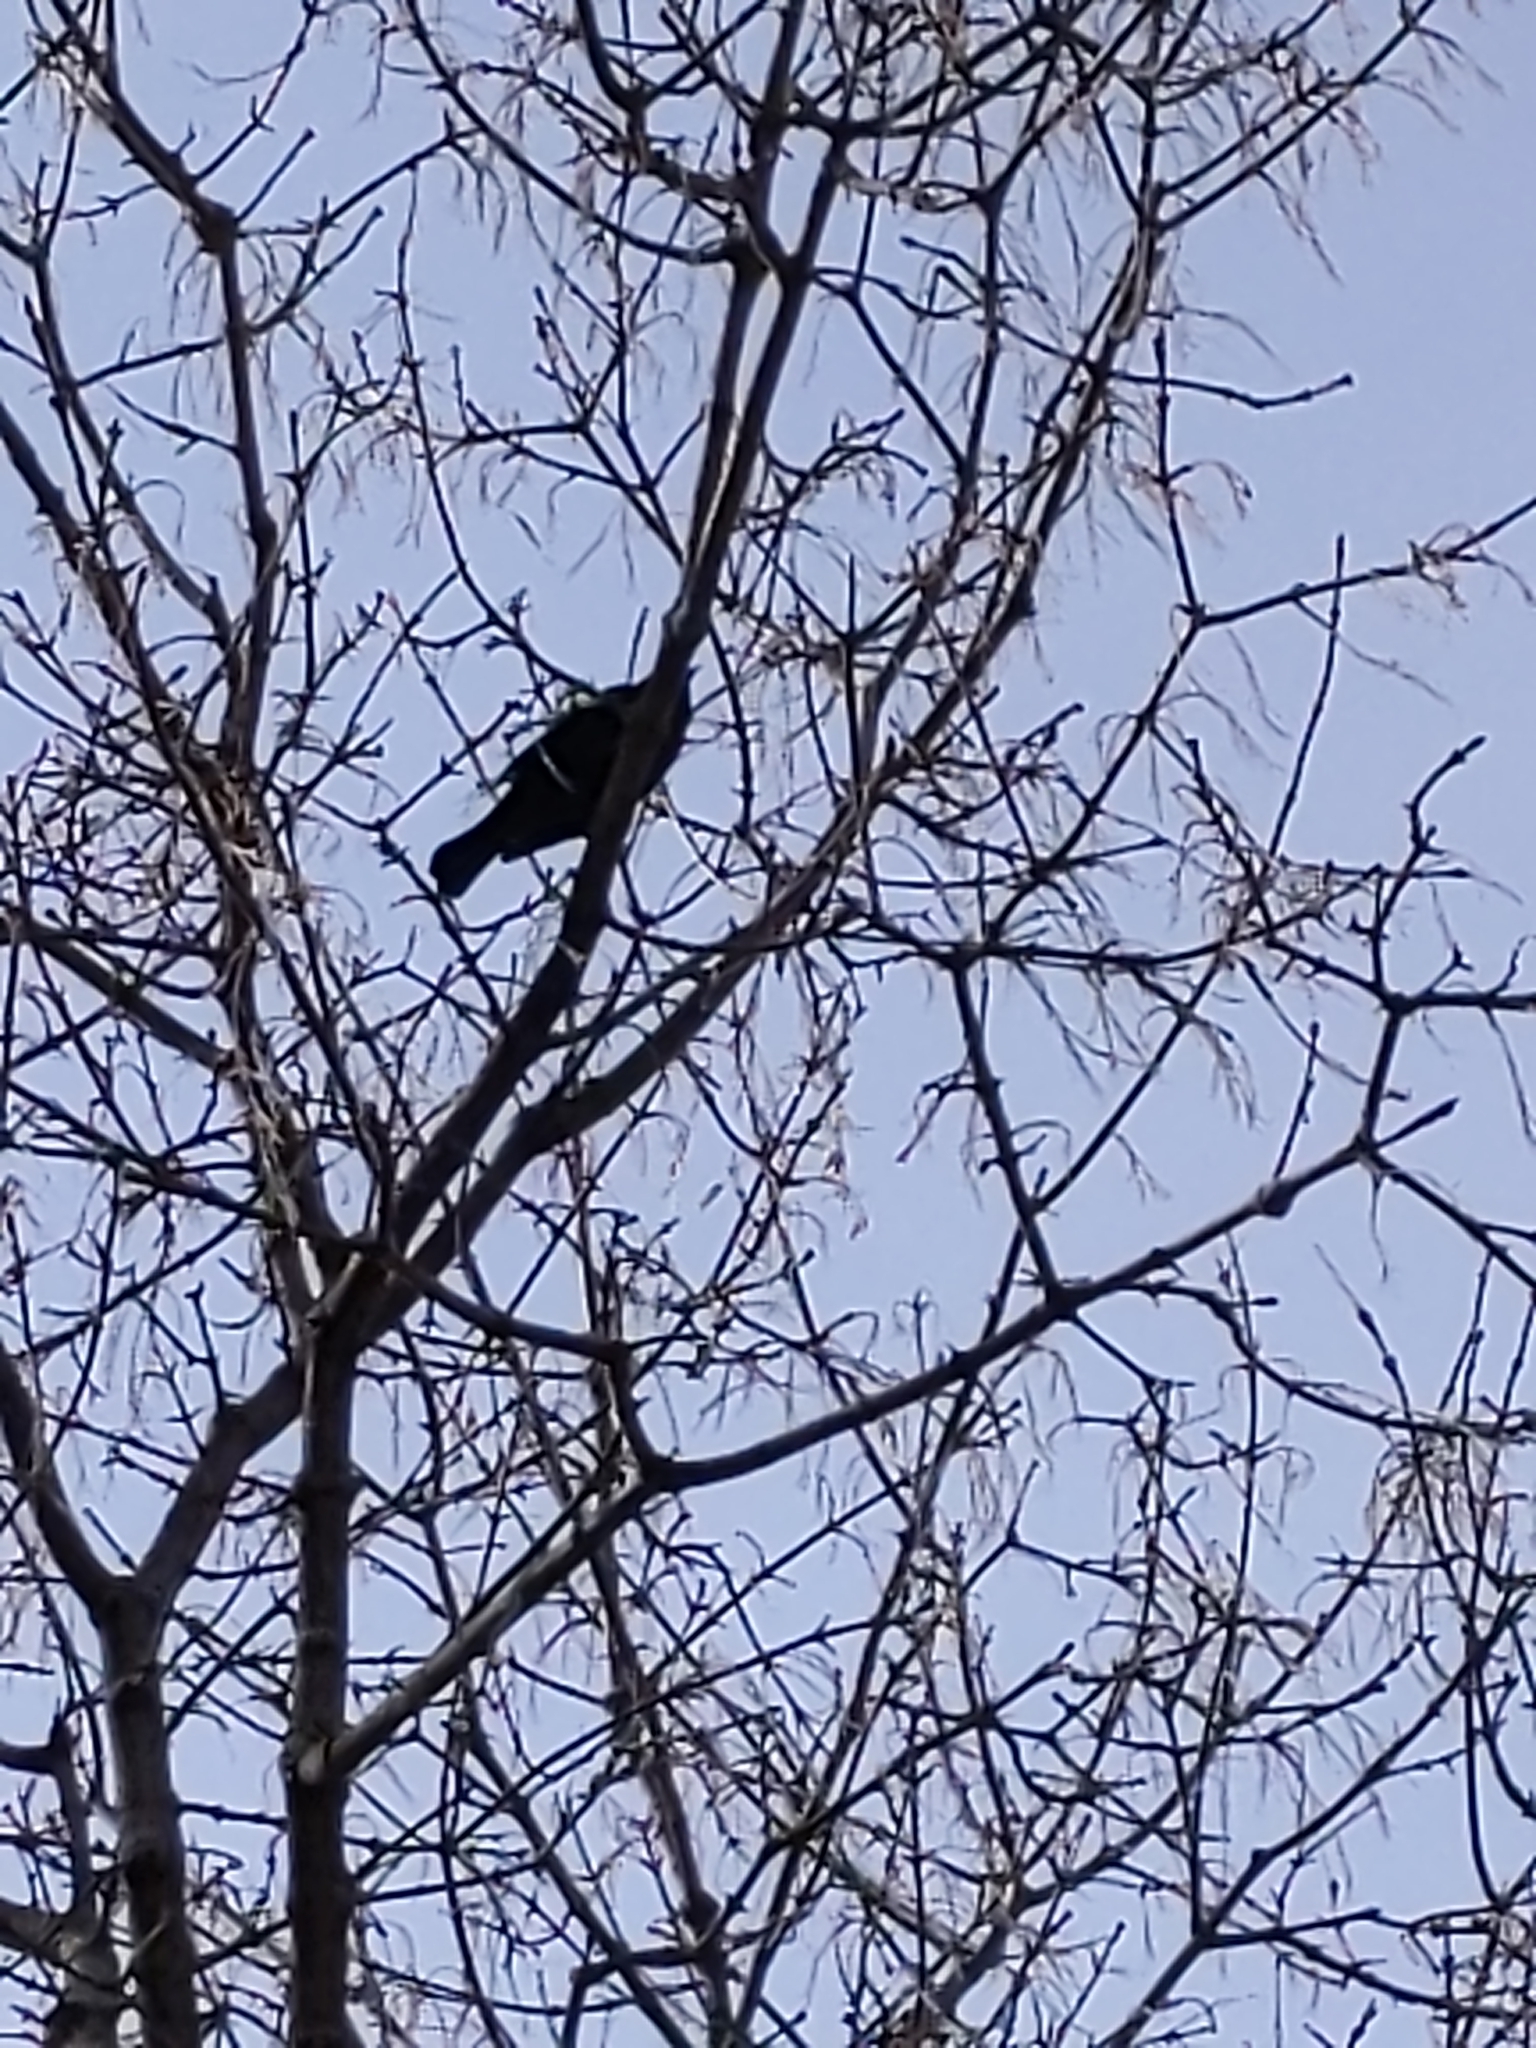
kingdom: Animalia
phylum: Chordata
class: Aves
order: Passeriformes
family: Icteridae
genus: Agelaius
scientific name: Agelaius phoeniceus
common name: Red-winged blackbird
